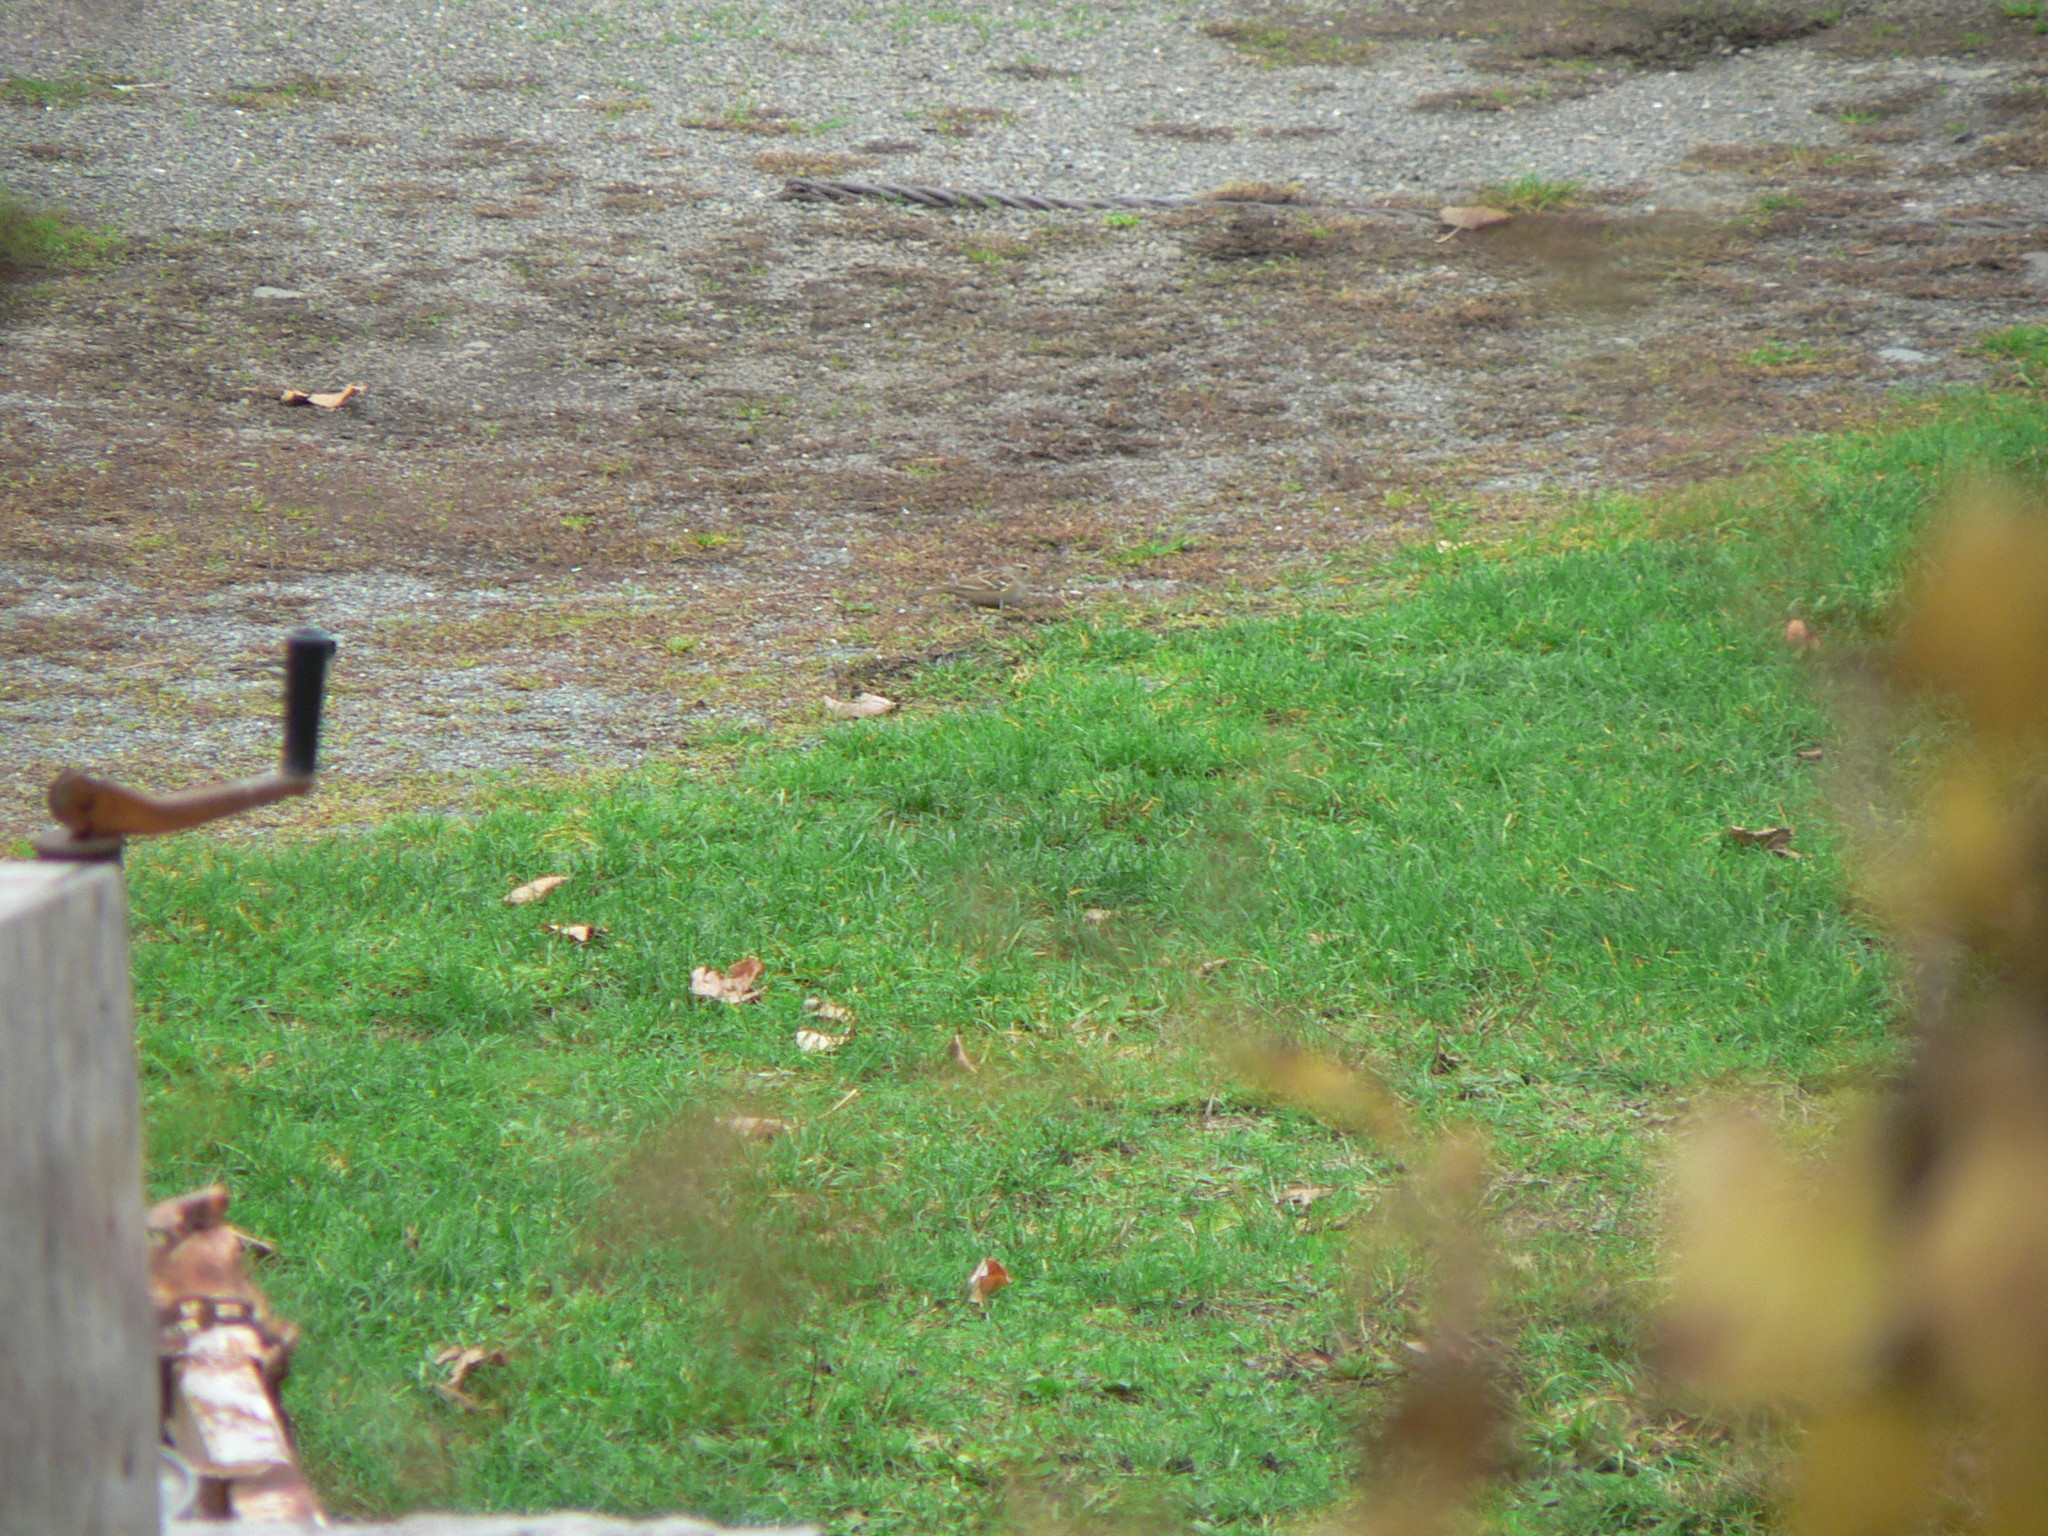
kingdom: Animalia
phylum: Chordata
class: Aves
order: Passeriformes
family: Passerellidae
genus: Zonotrichia
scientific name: Zonotrichia leucophrys
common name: White-crowned sparrow
